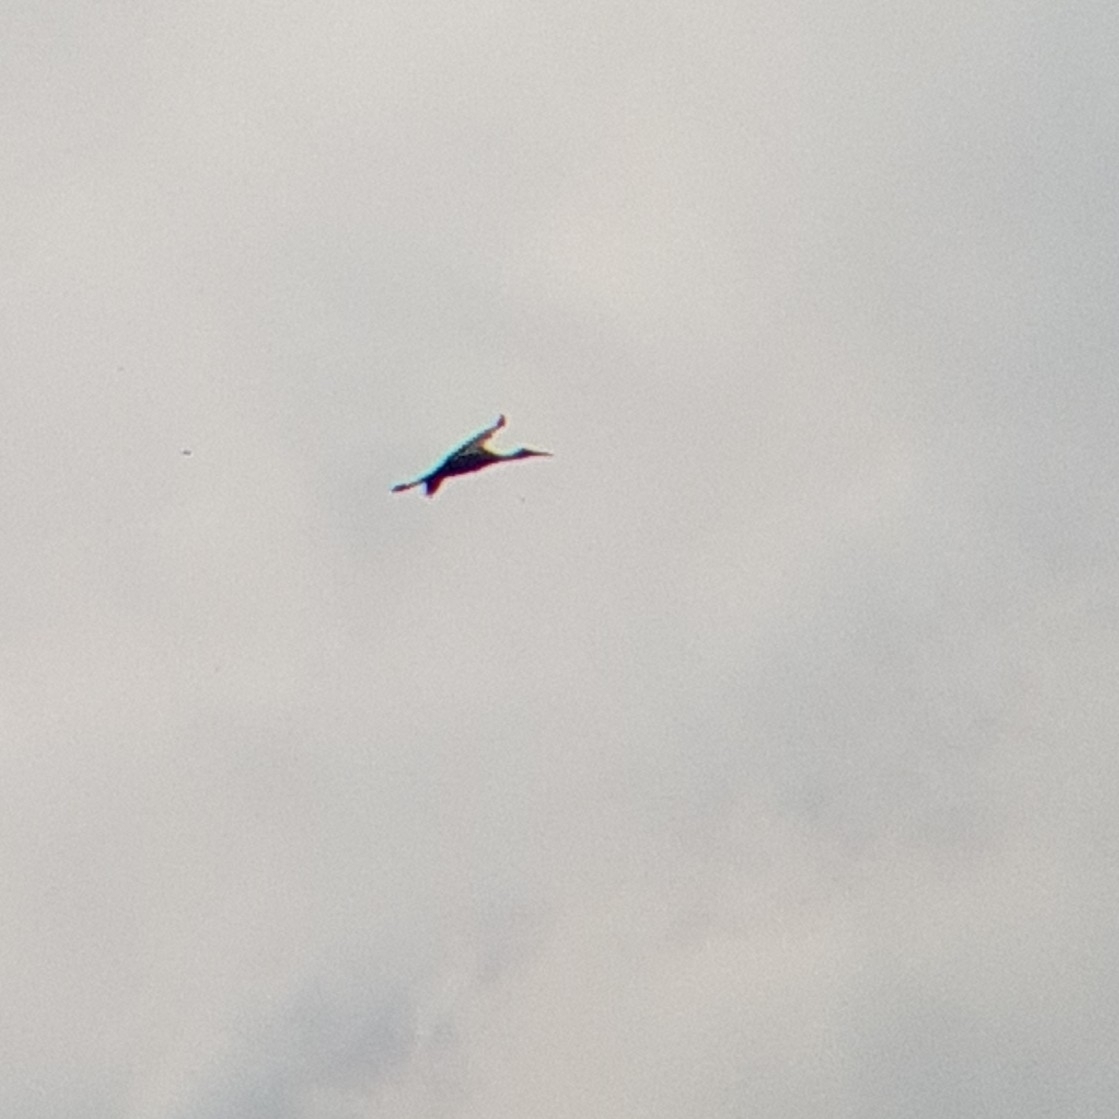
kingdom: Animalia
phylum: Chordata
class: Aves
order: Ciconiiformes
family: Ciconiidae
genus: Ciconia
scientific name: Ciconia ciconia
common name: White stork
